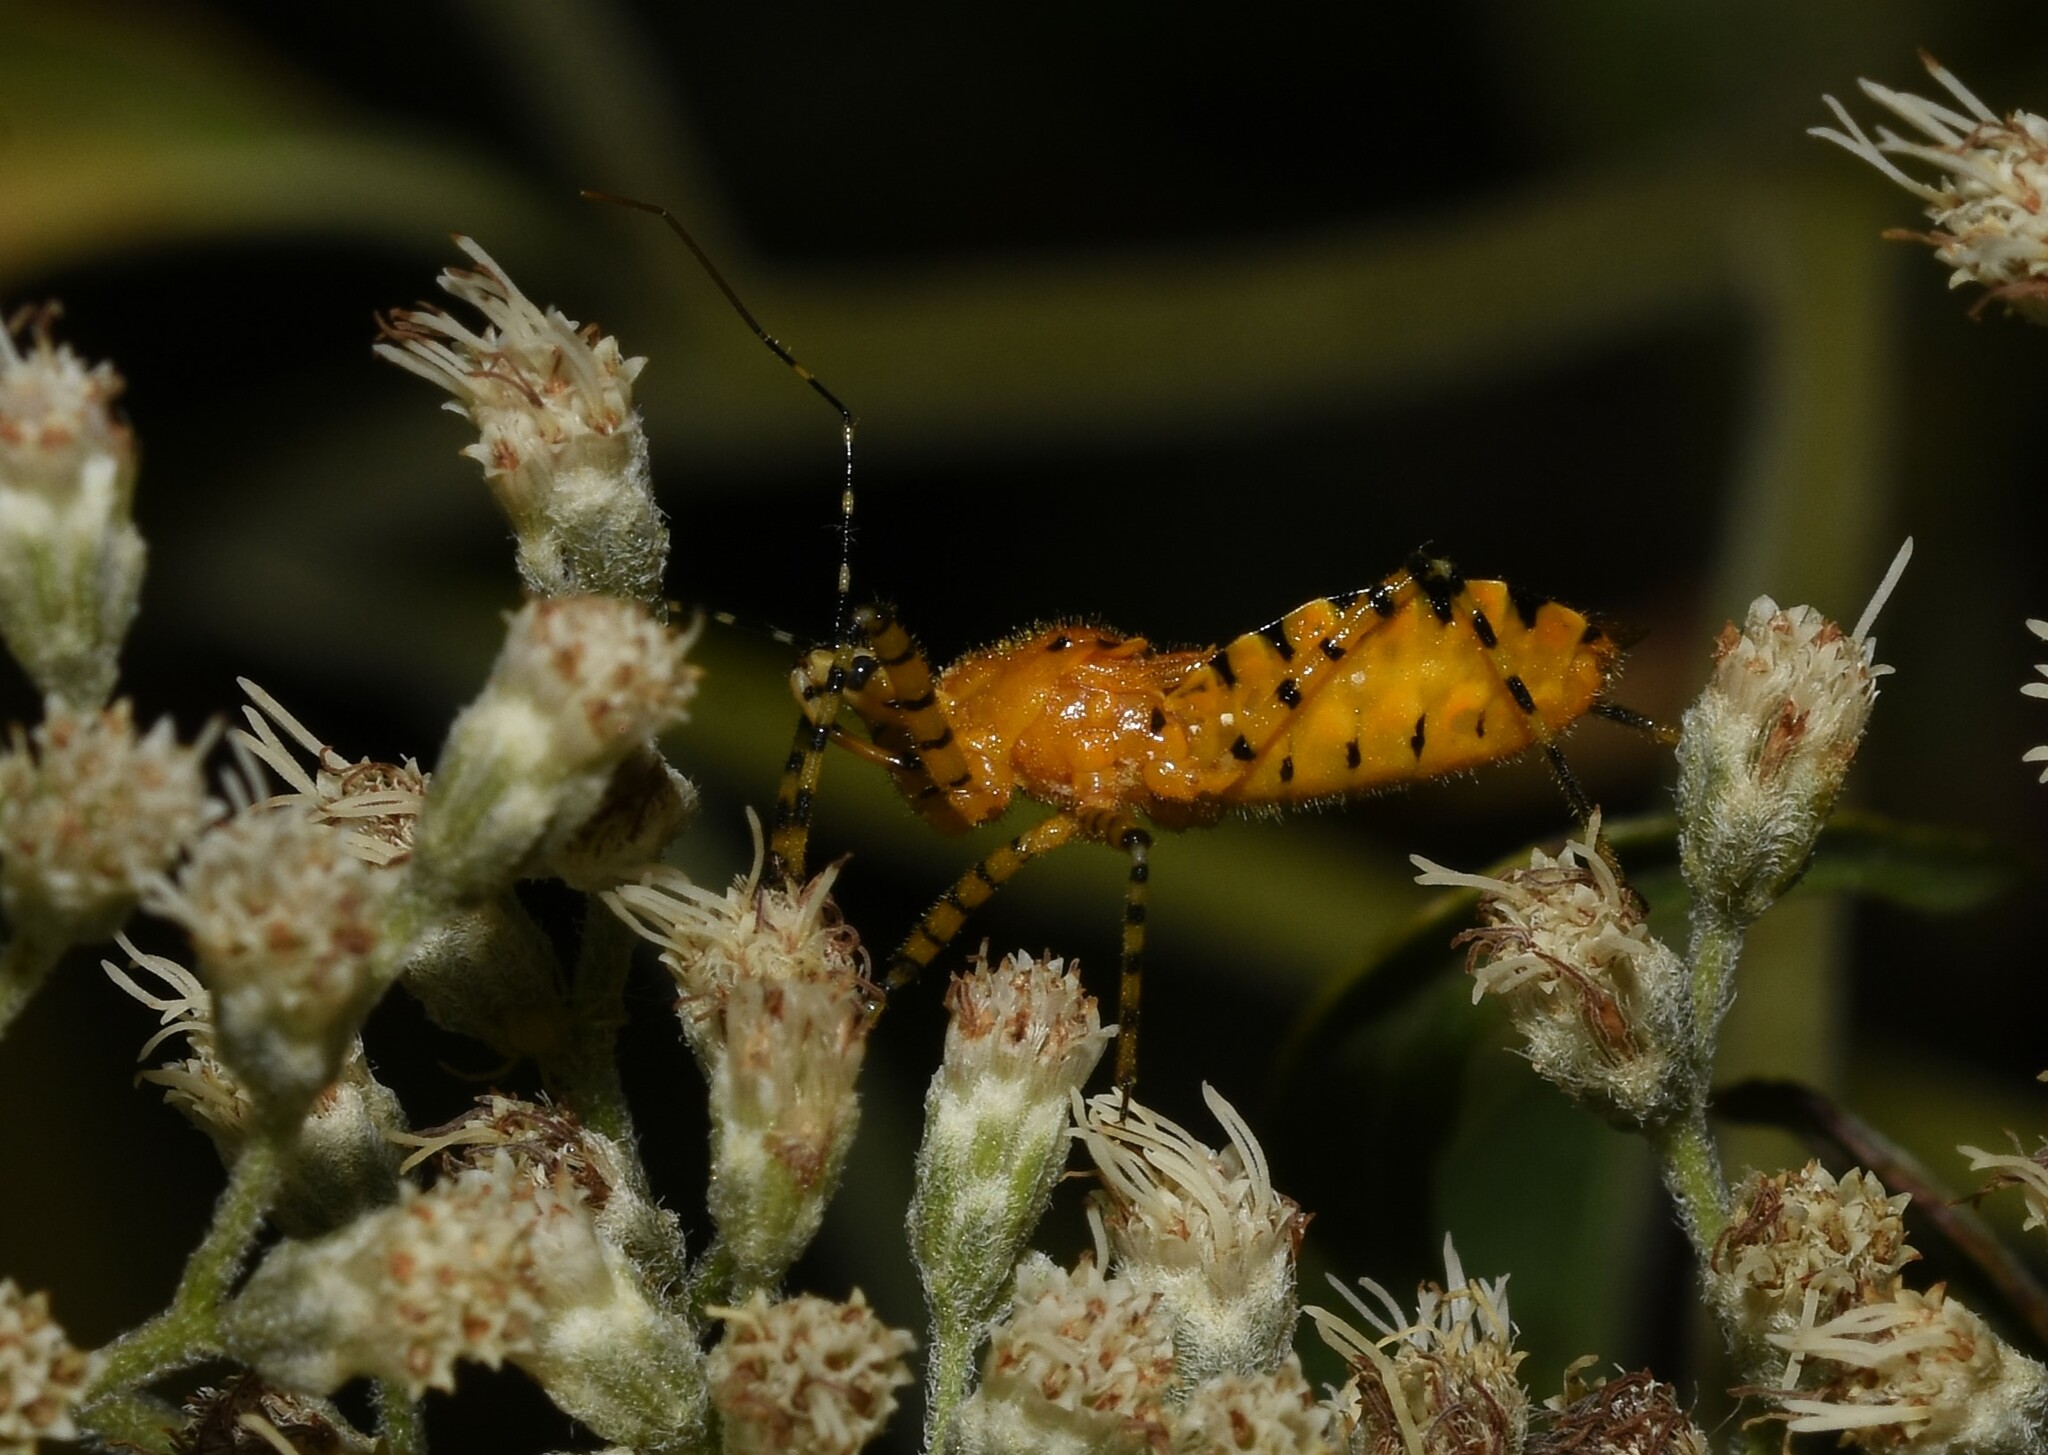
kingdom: Animalia
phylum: Arthropoda
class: Insecta
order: Hemiptera
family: Reduviidae
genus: Pselliopus
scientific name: Pselliopus barberi
